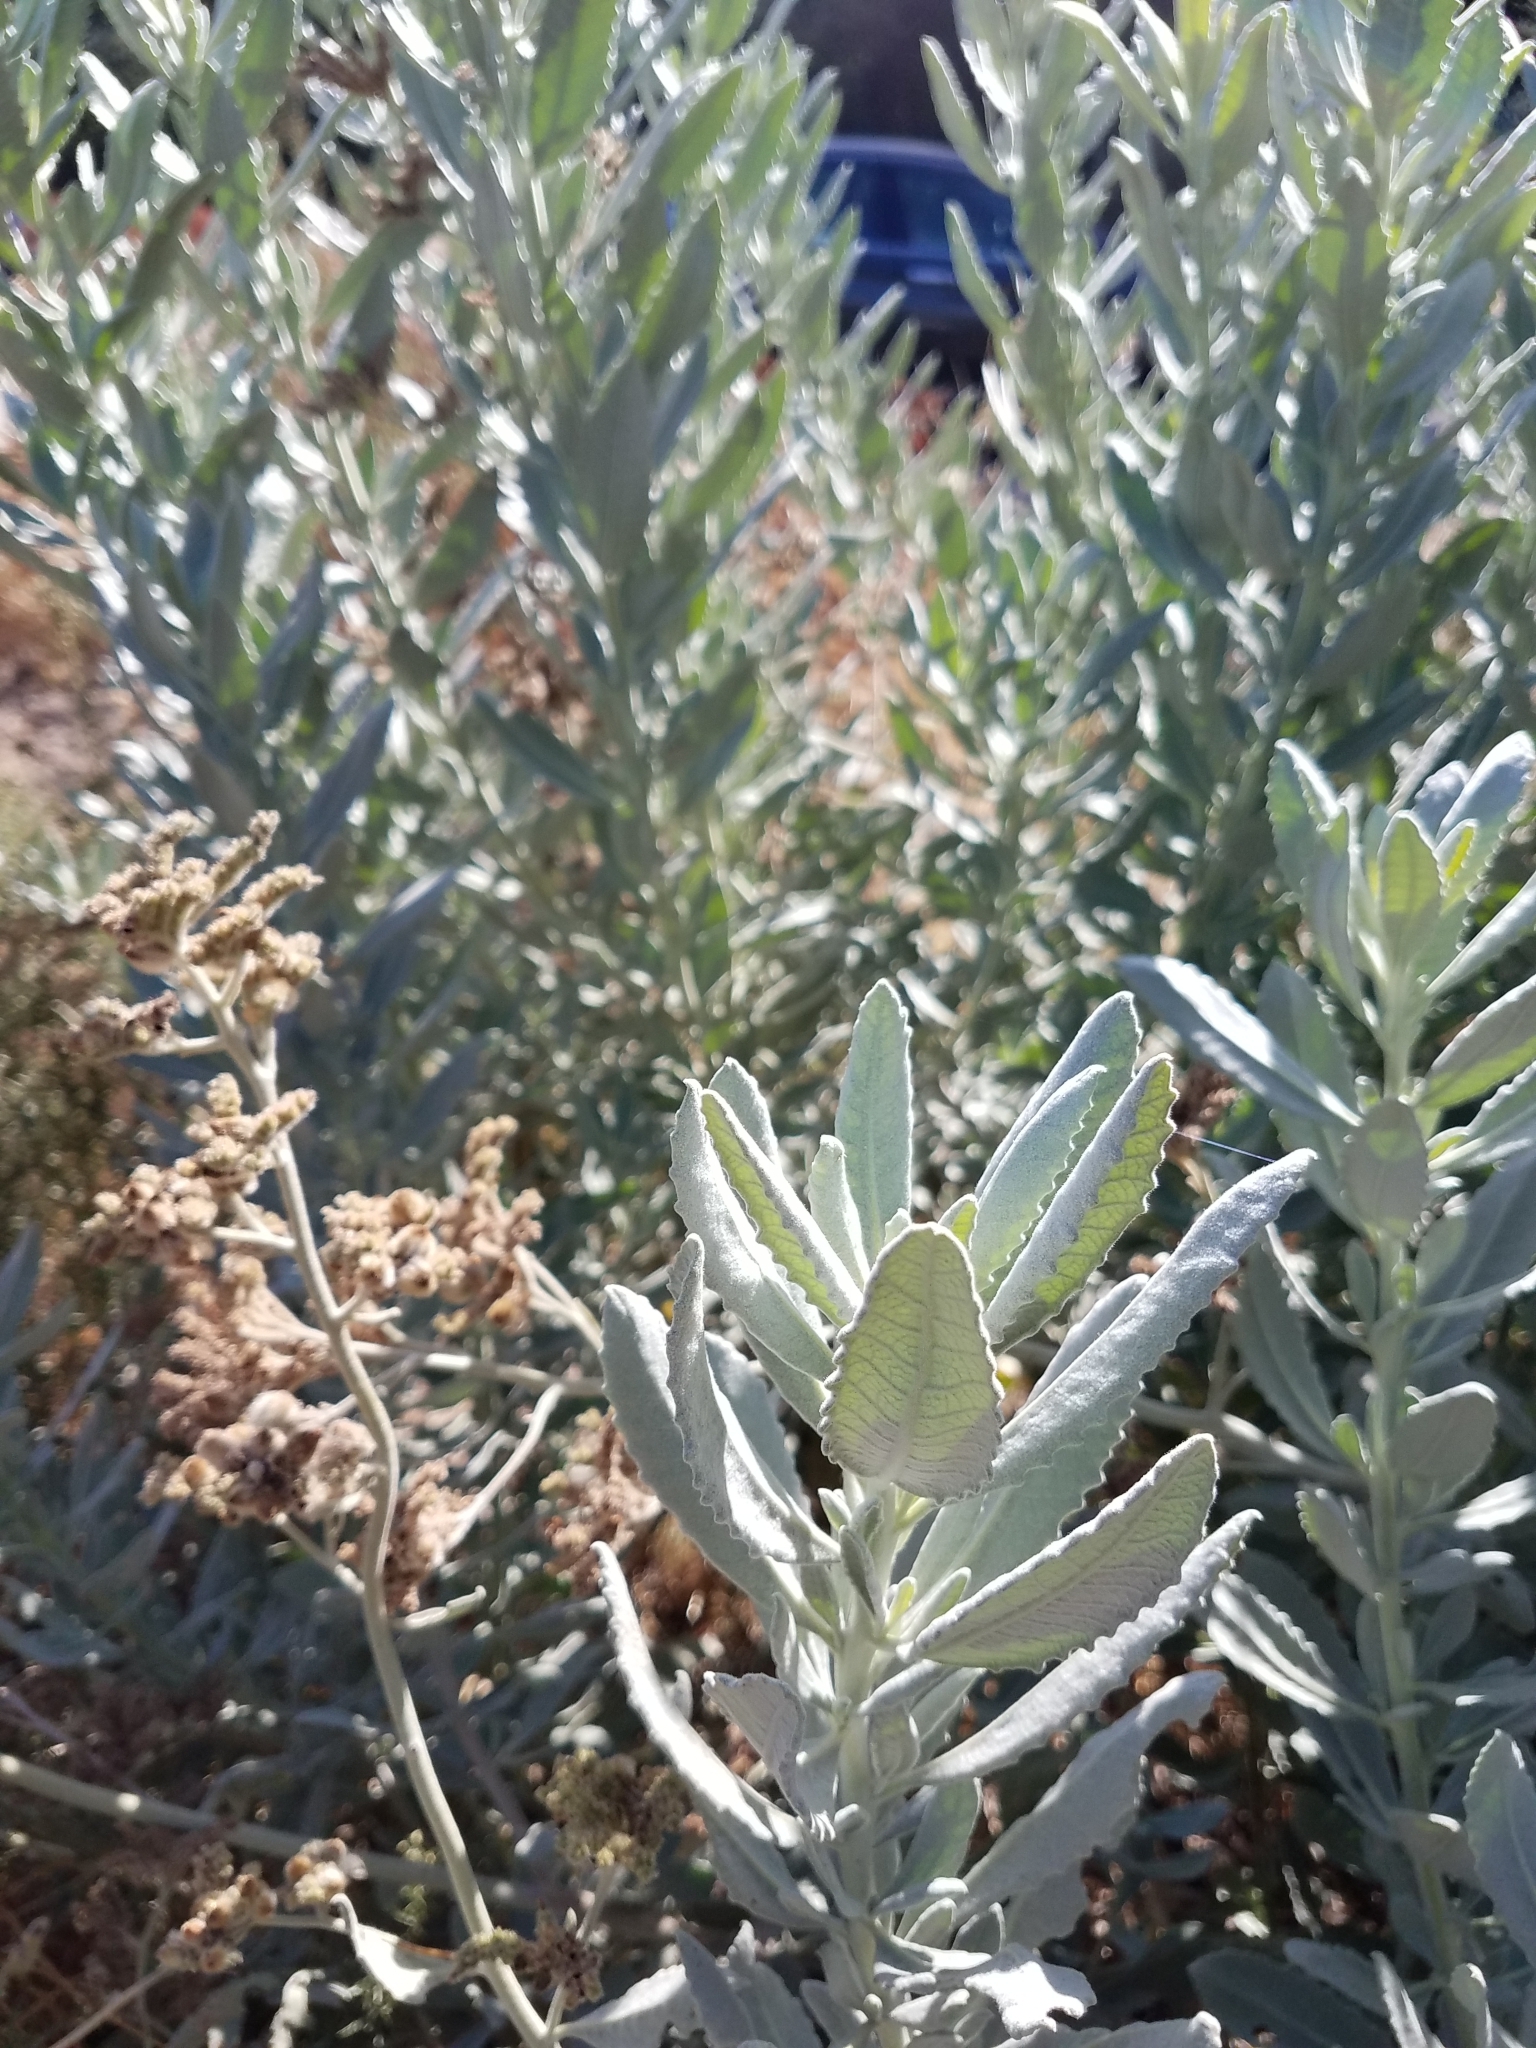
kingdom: Plantae
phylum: Tracheophyta
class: Magnoliopsida
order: Boraginales
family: Namaceae
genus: Eriodictyon
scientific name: Eriodictyon tomentosum
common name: Woolly yerba-santa
